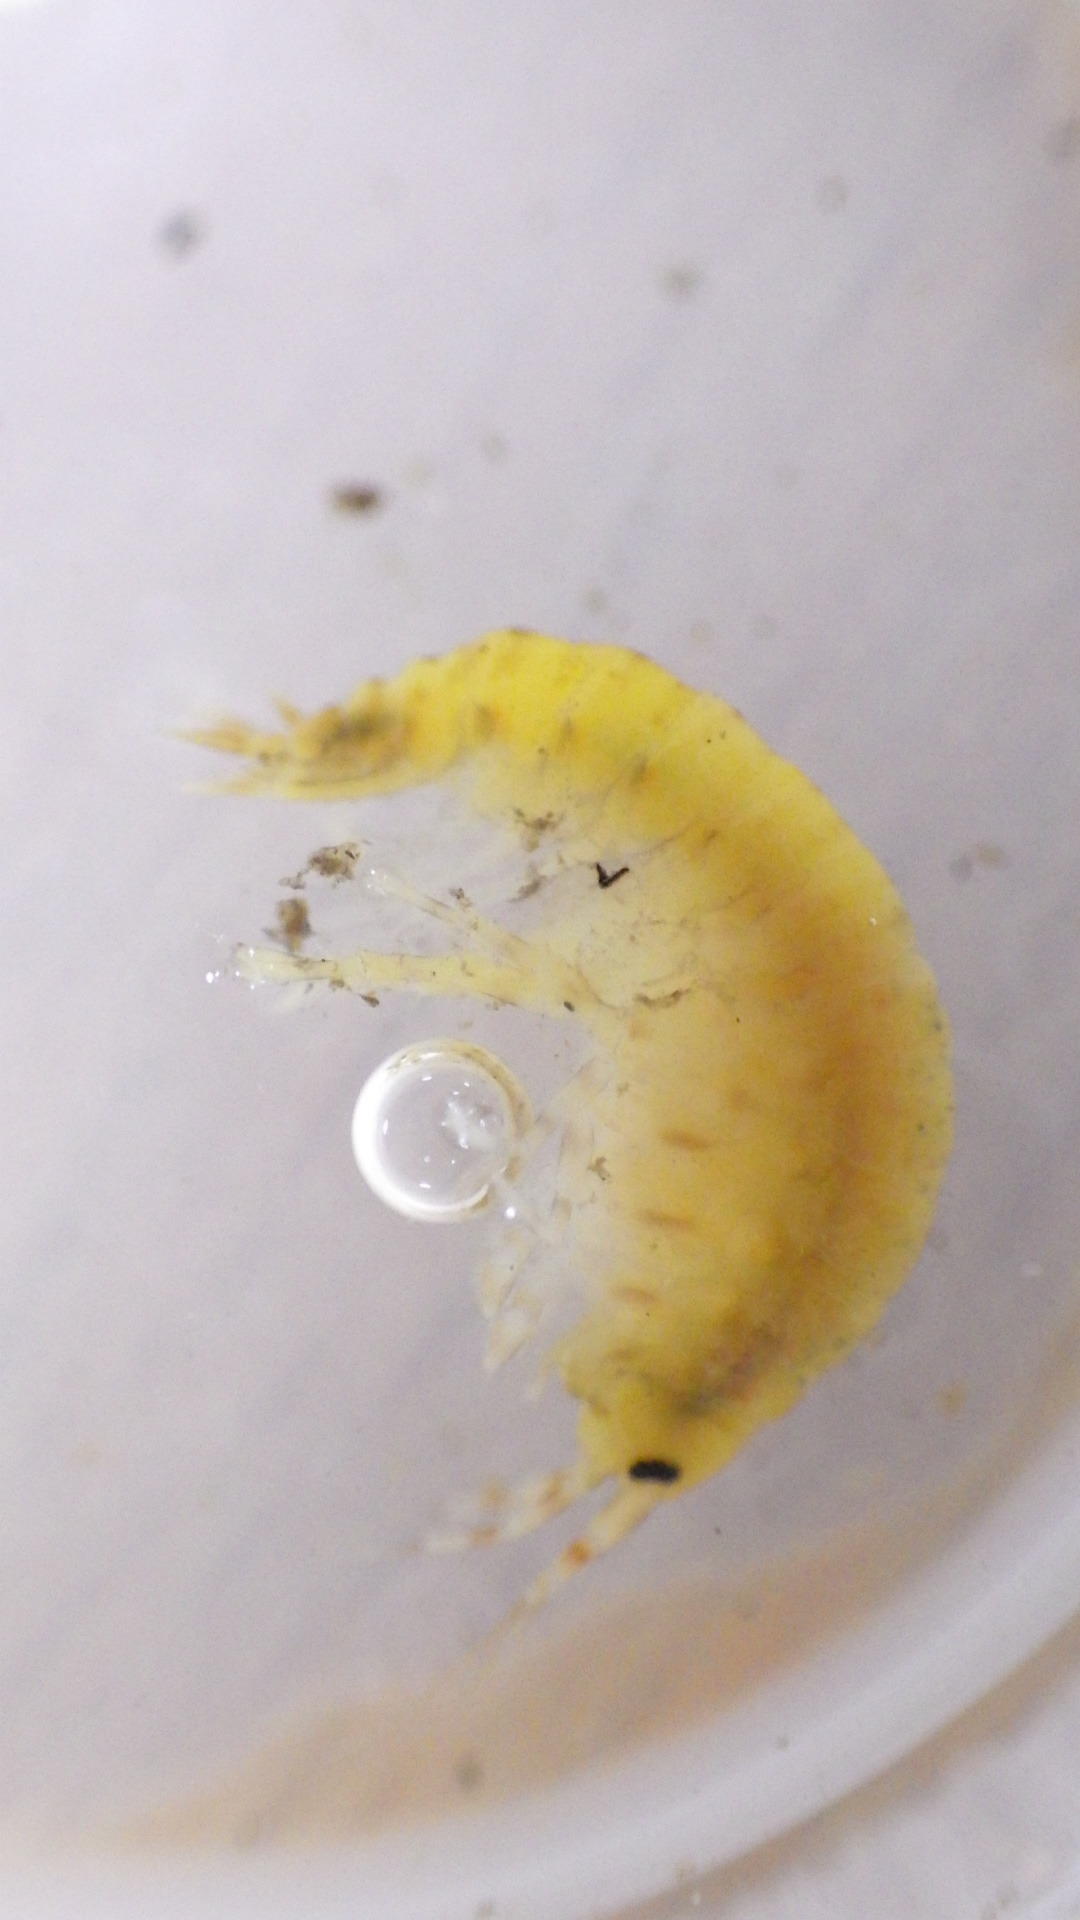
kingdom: Animalia
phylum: Arthropoda
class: Malacostraca
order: Amphipoda
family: Gammaridae
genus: Gammarus
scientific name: Gammarus fasciatus
